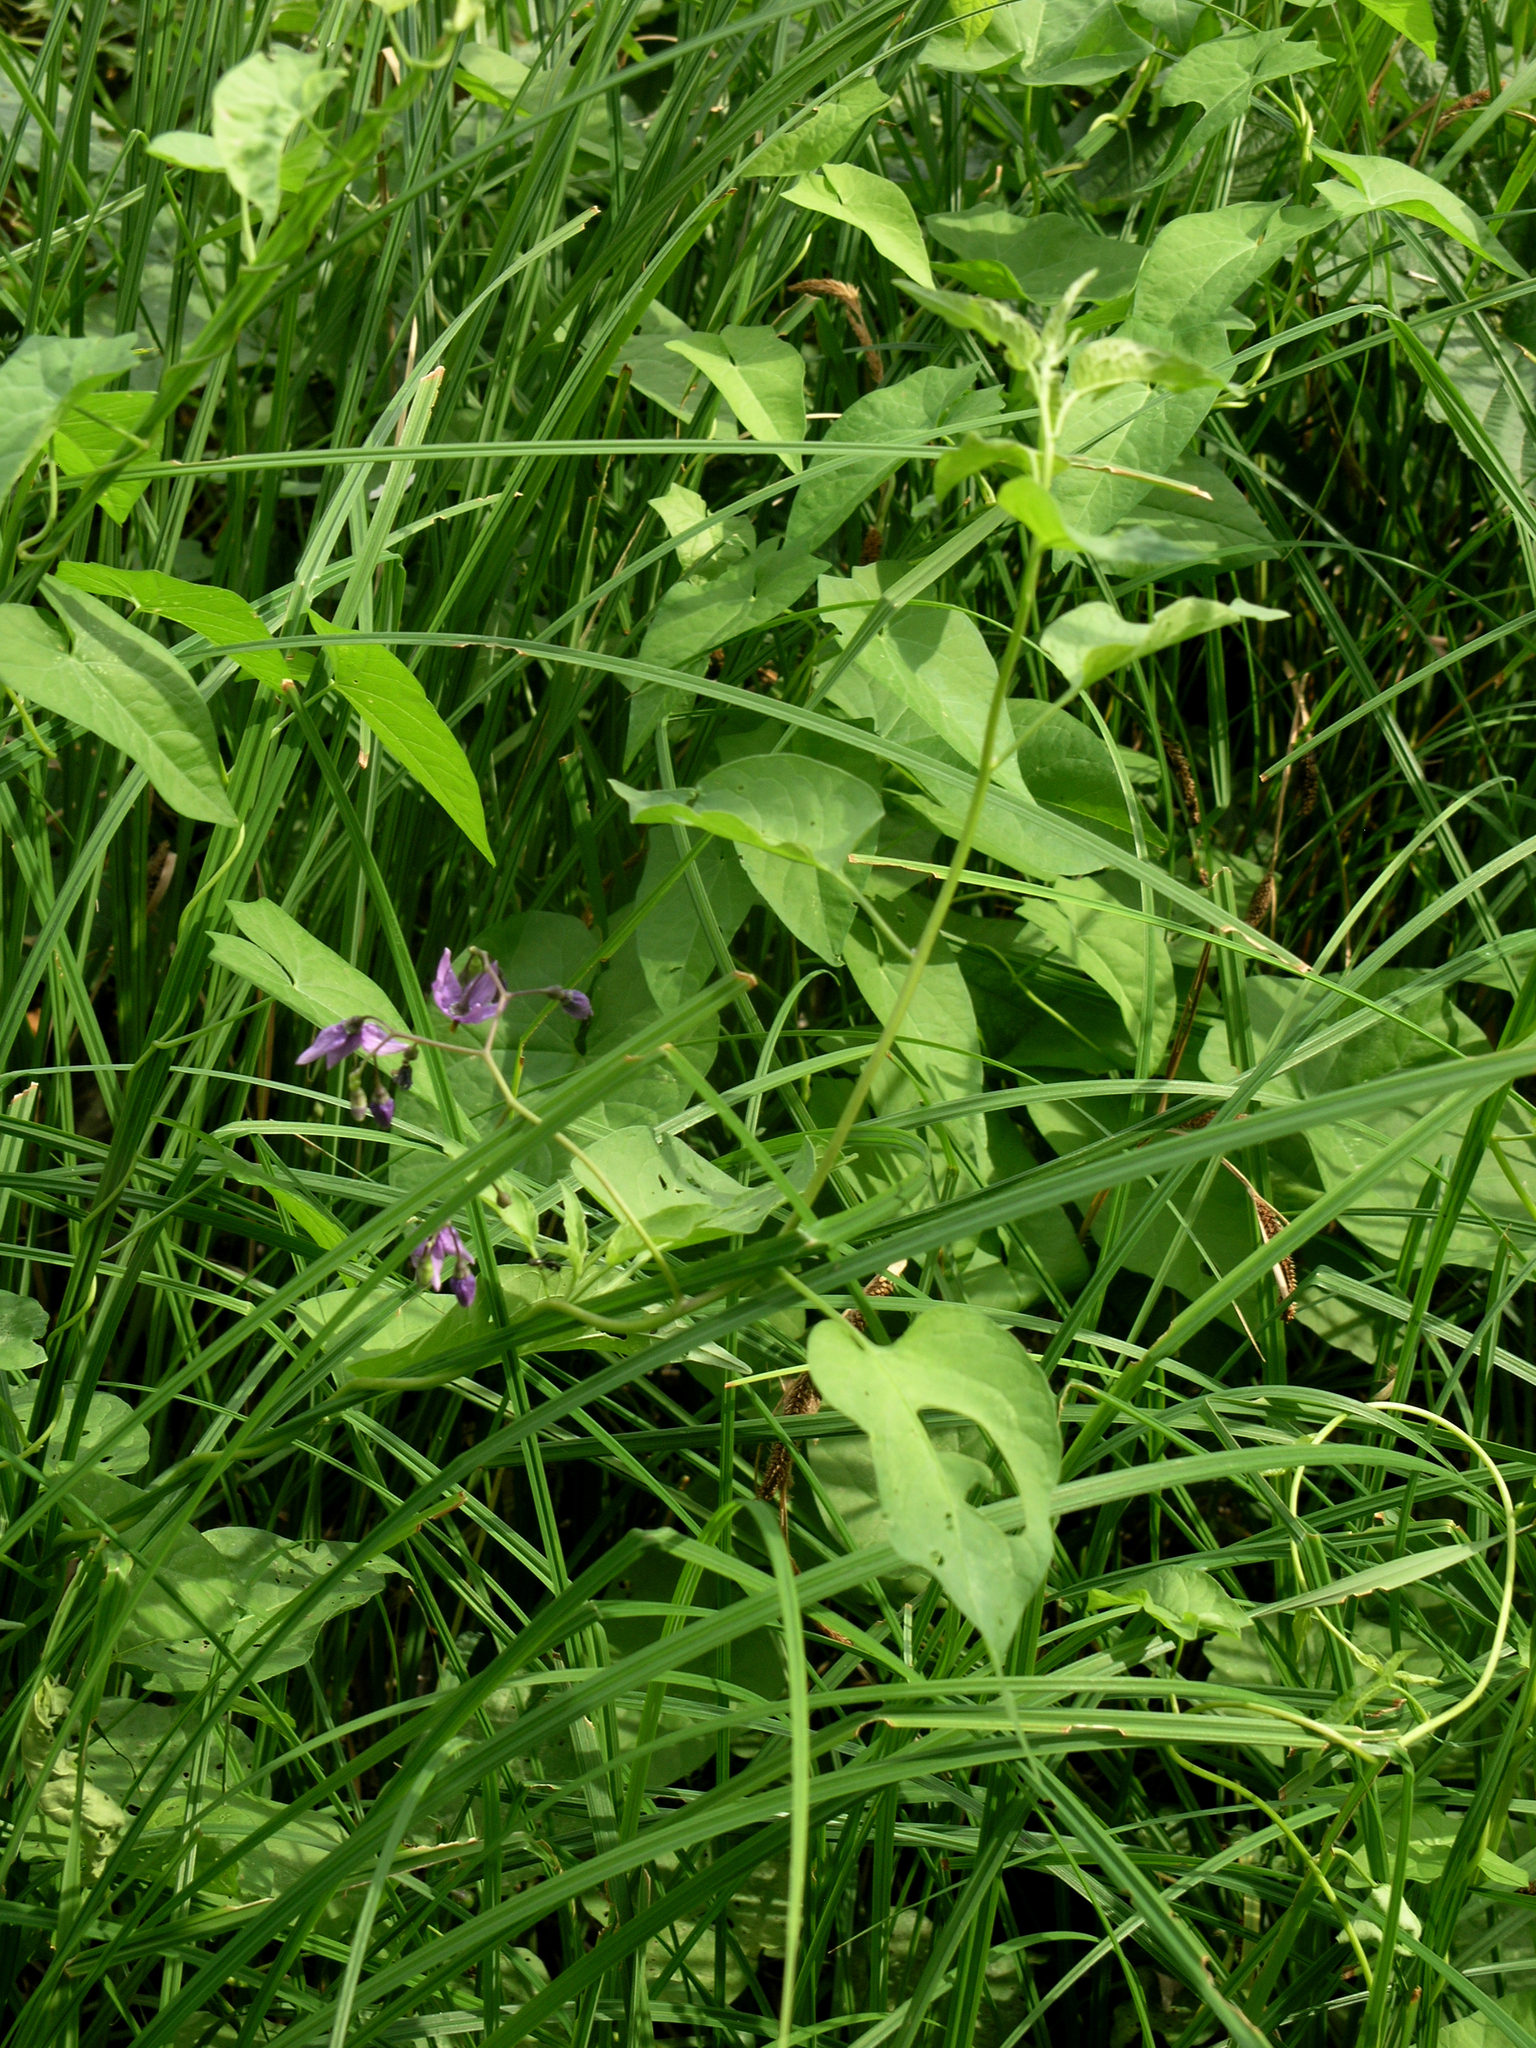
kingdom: Plantae
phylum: Tracheophyta
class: Magnoliopsida
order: Solanales
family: Solanaceae
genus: Solanum
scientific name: Solanum dulcamara
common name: Climbing nightshade
